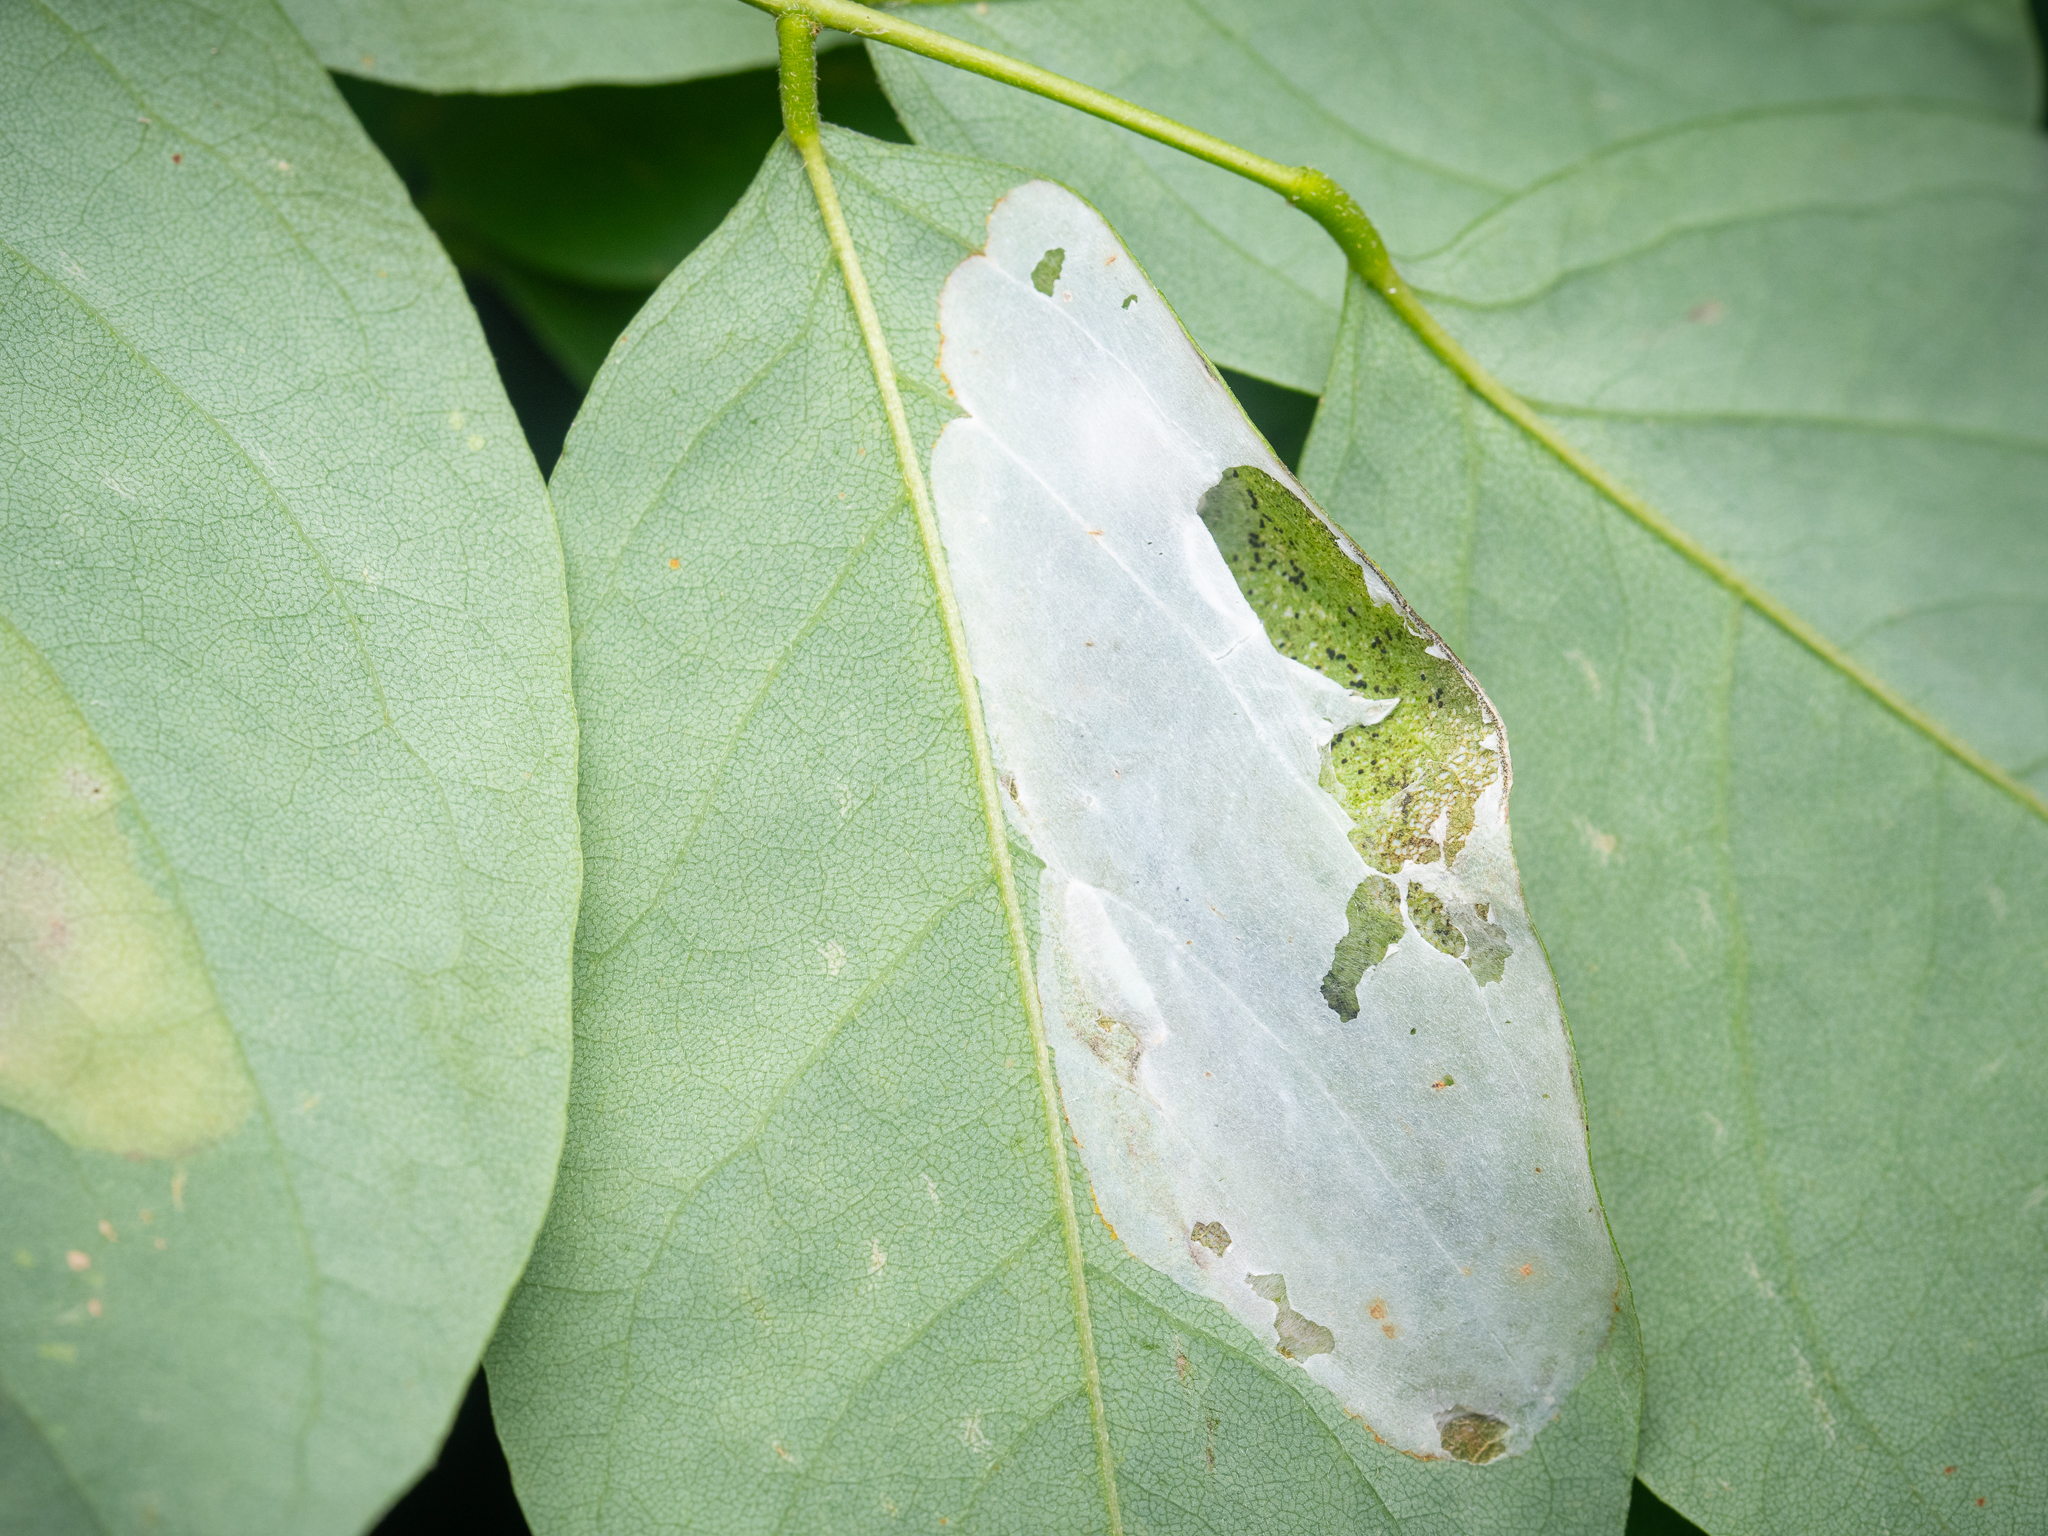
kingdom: Animalia
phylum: Arthropoda
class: Insecta
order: Lepidoptera
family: Gracillariidae
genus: Macrosaccus
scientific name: Macrosaccus robiniella
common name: Leaf blotch miner moth
